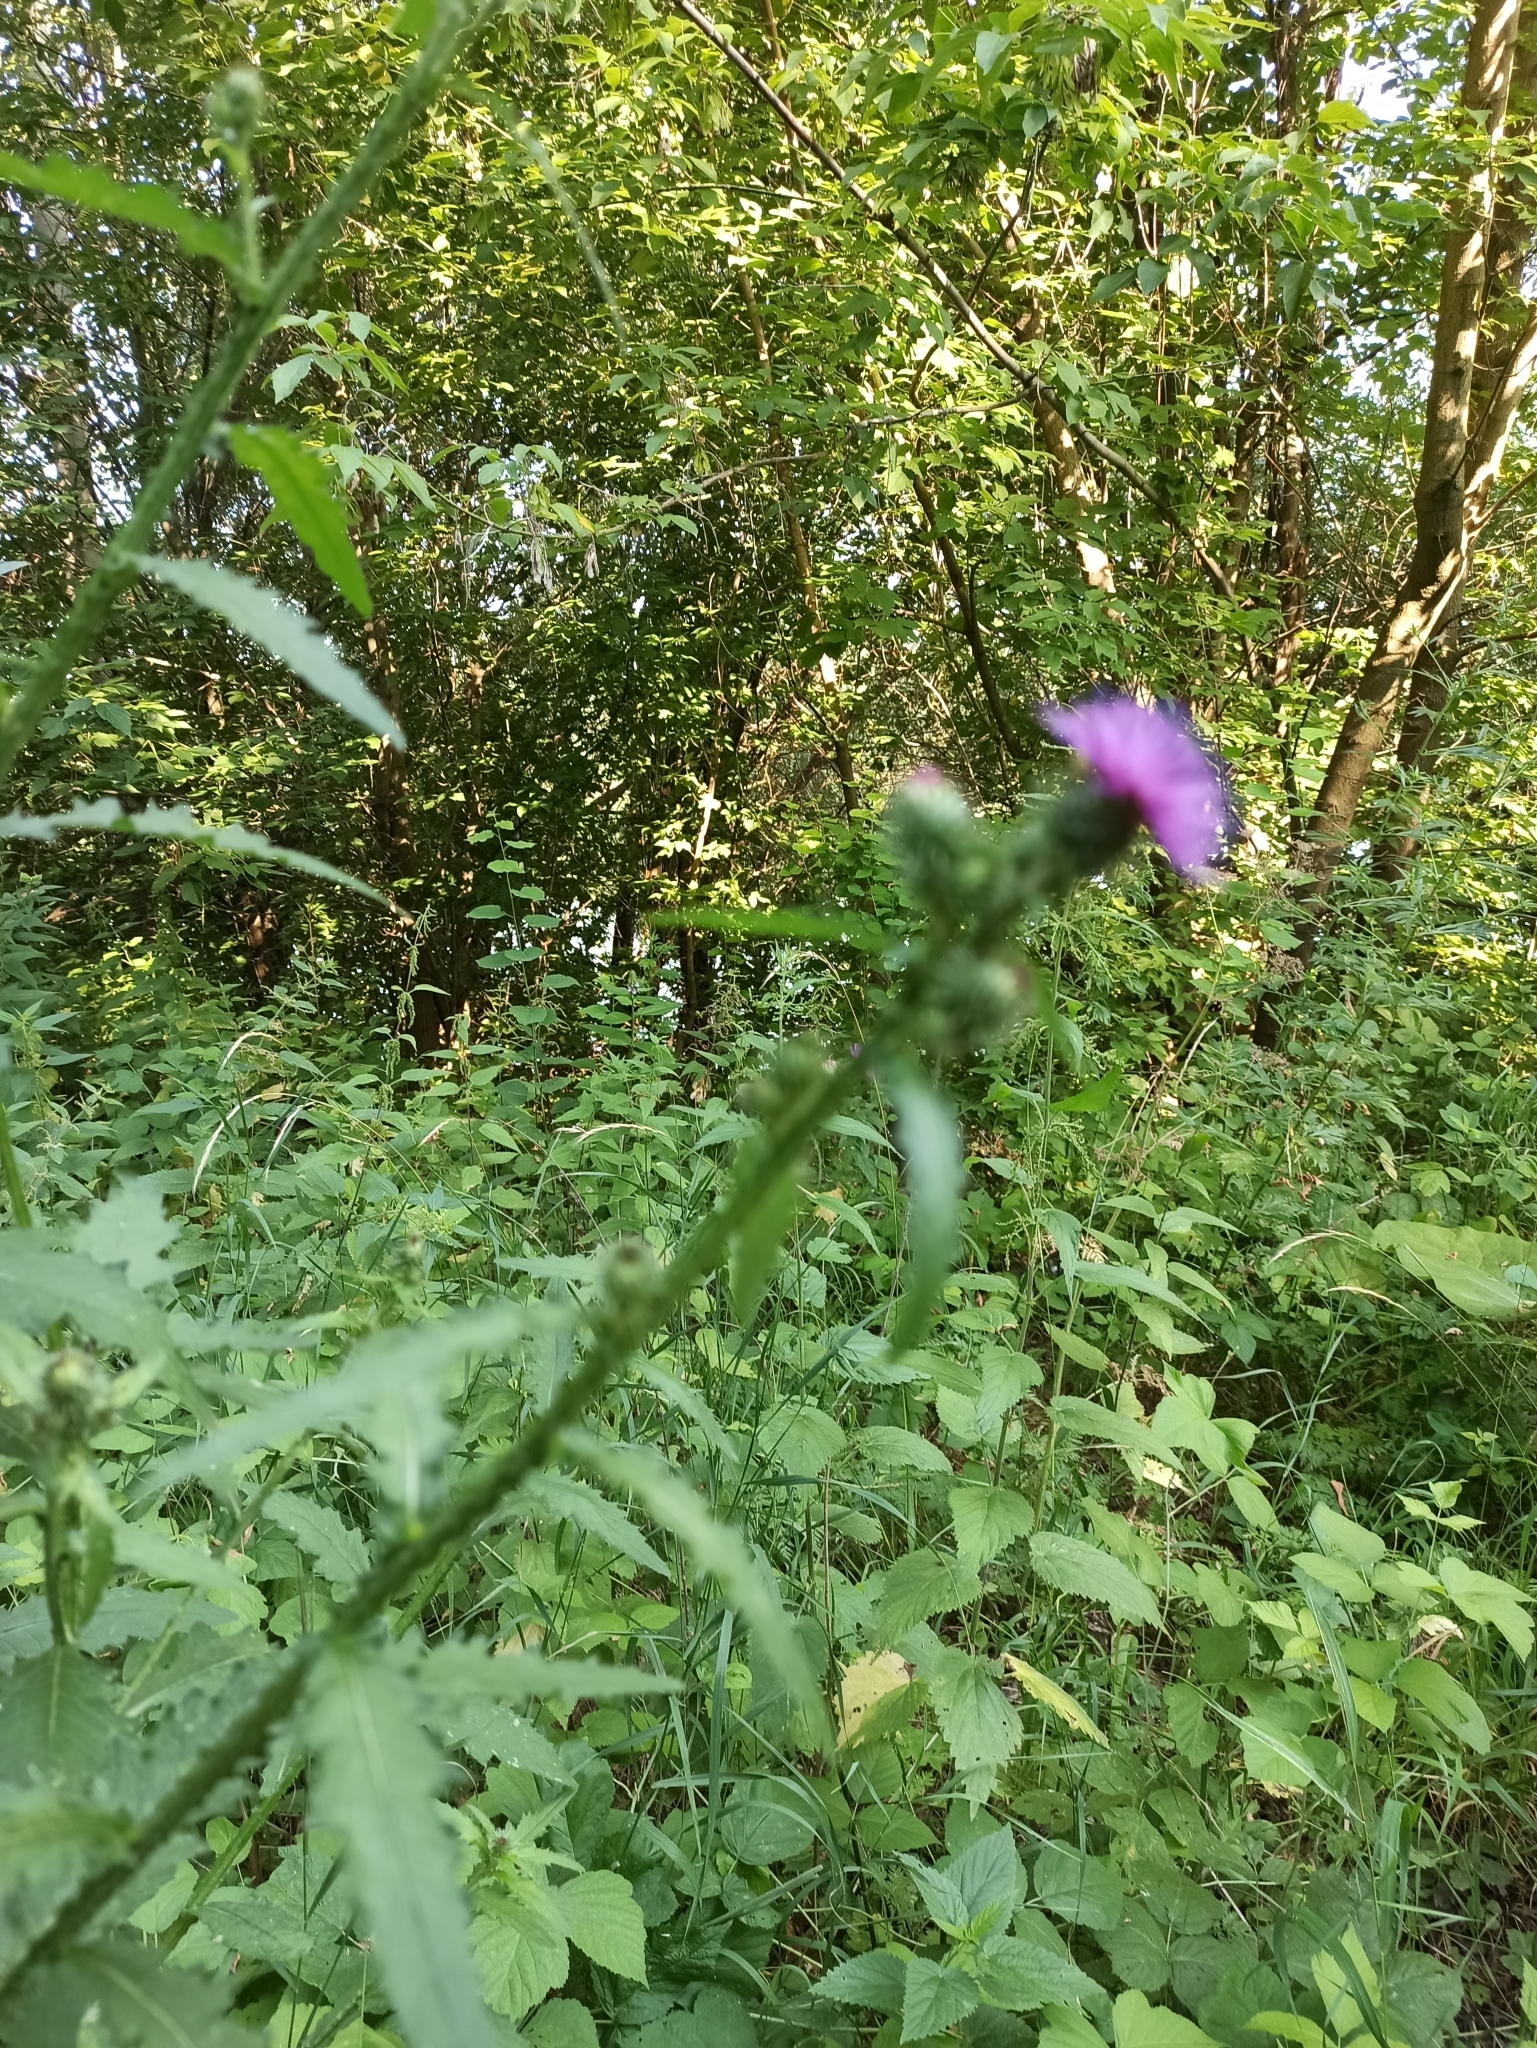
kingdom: Plantae
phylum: Tracheophyta
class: Magnoliopsida
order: Asterales
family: Asteraceae
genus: Carduus
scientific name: Carduus crispus
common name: Welted thistle
